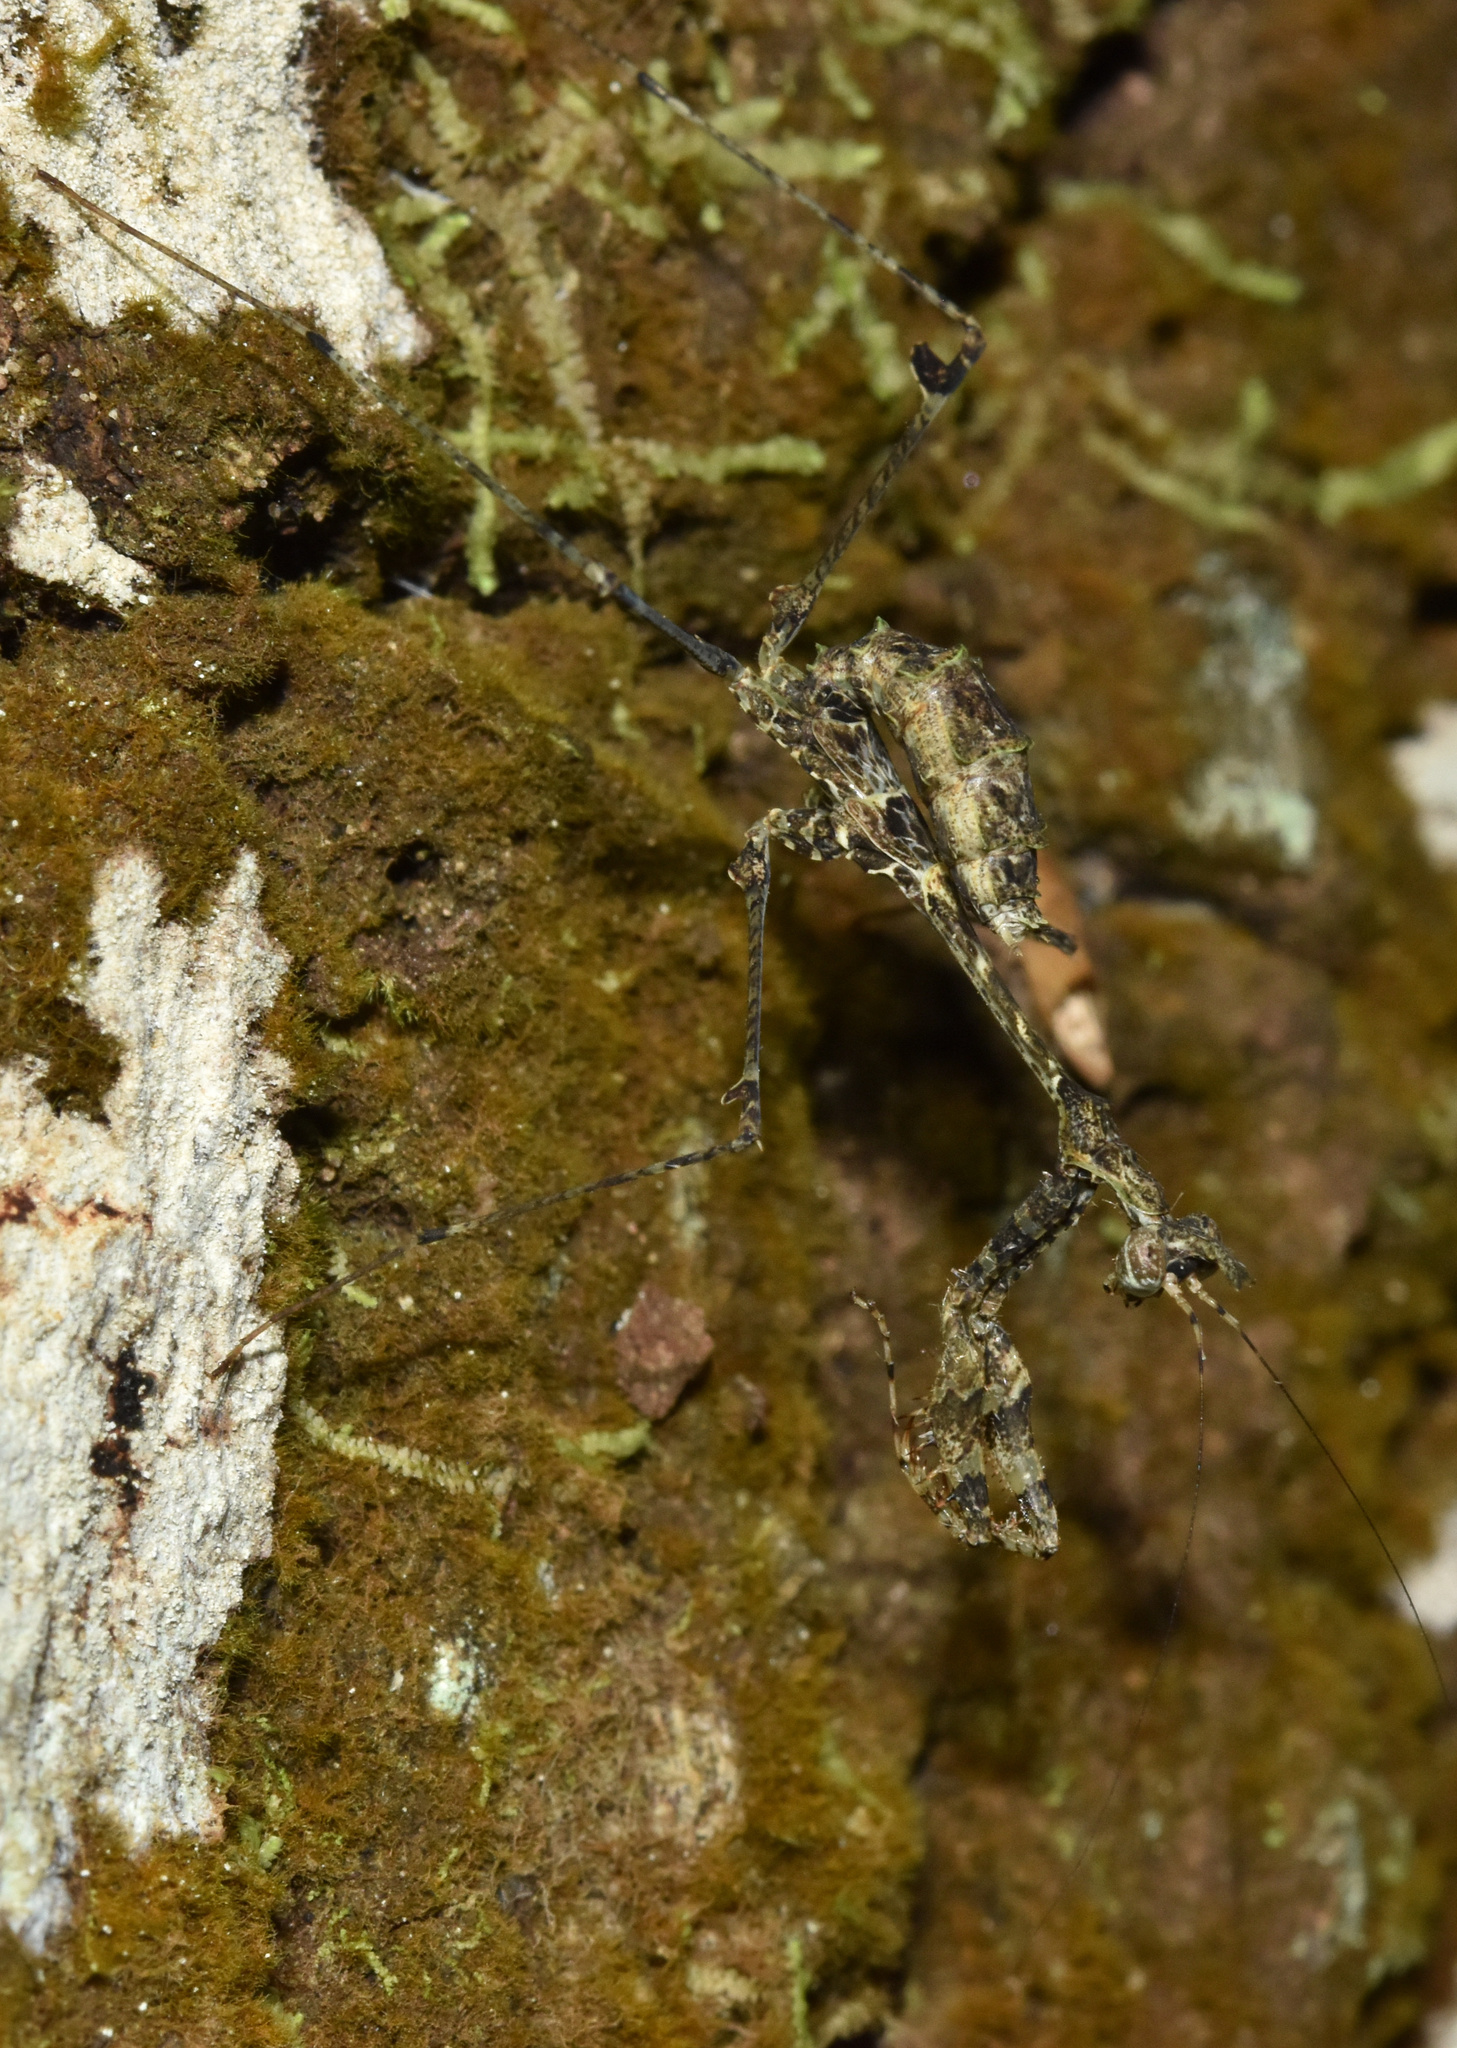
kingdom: Animalia
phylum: Arthropoda
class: Insecta
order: Mantodea
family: Hymenopodidae
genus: Sibylla
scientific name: Sibylla pretiosa
